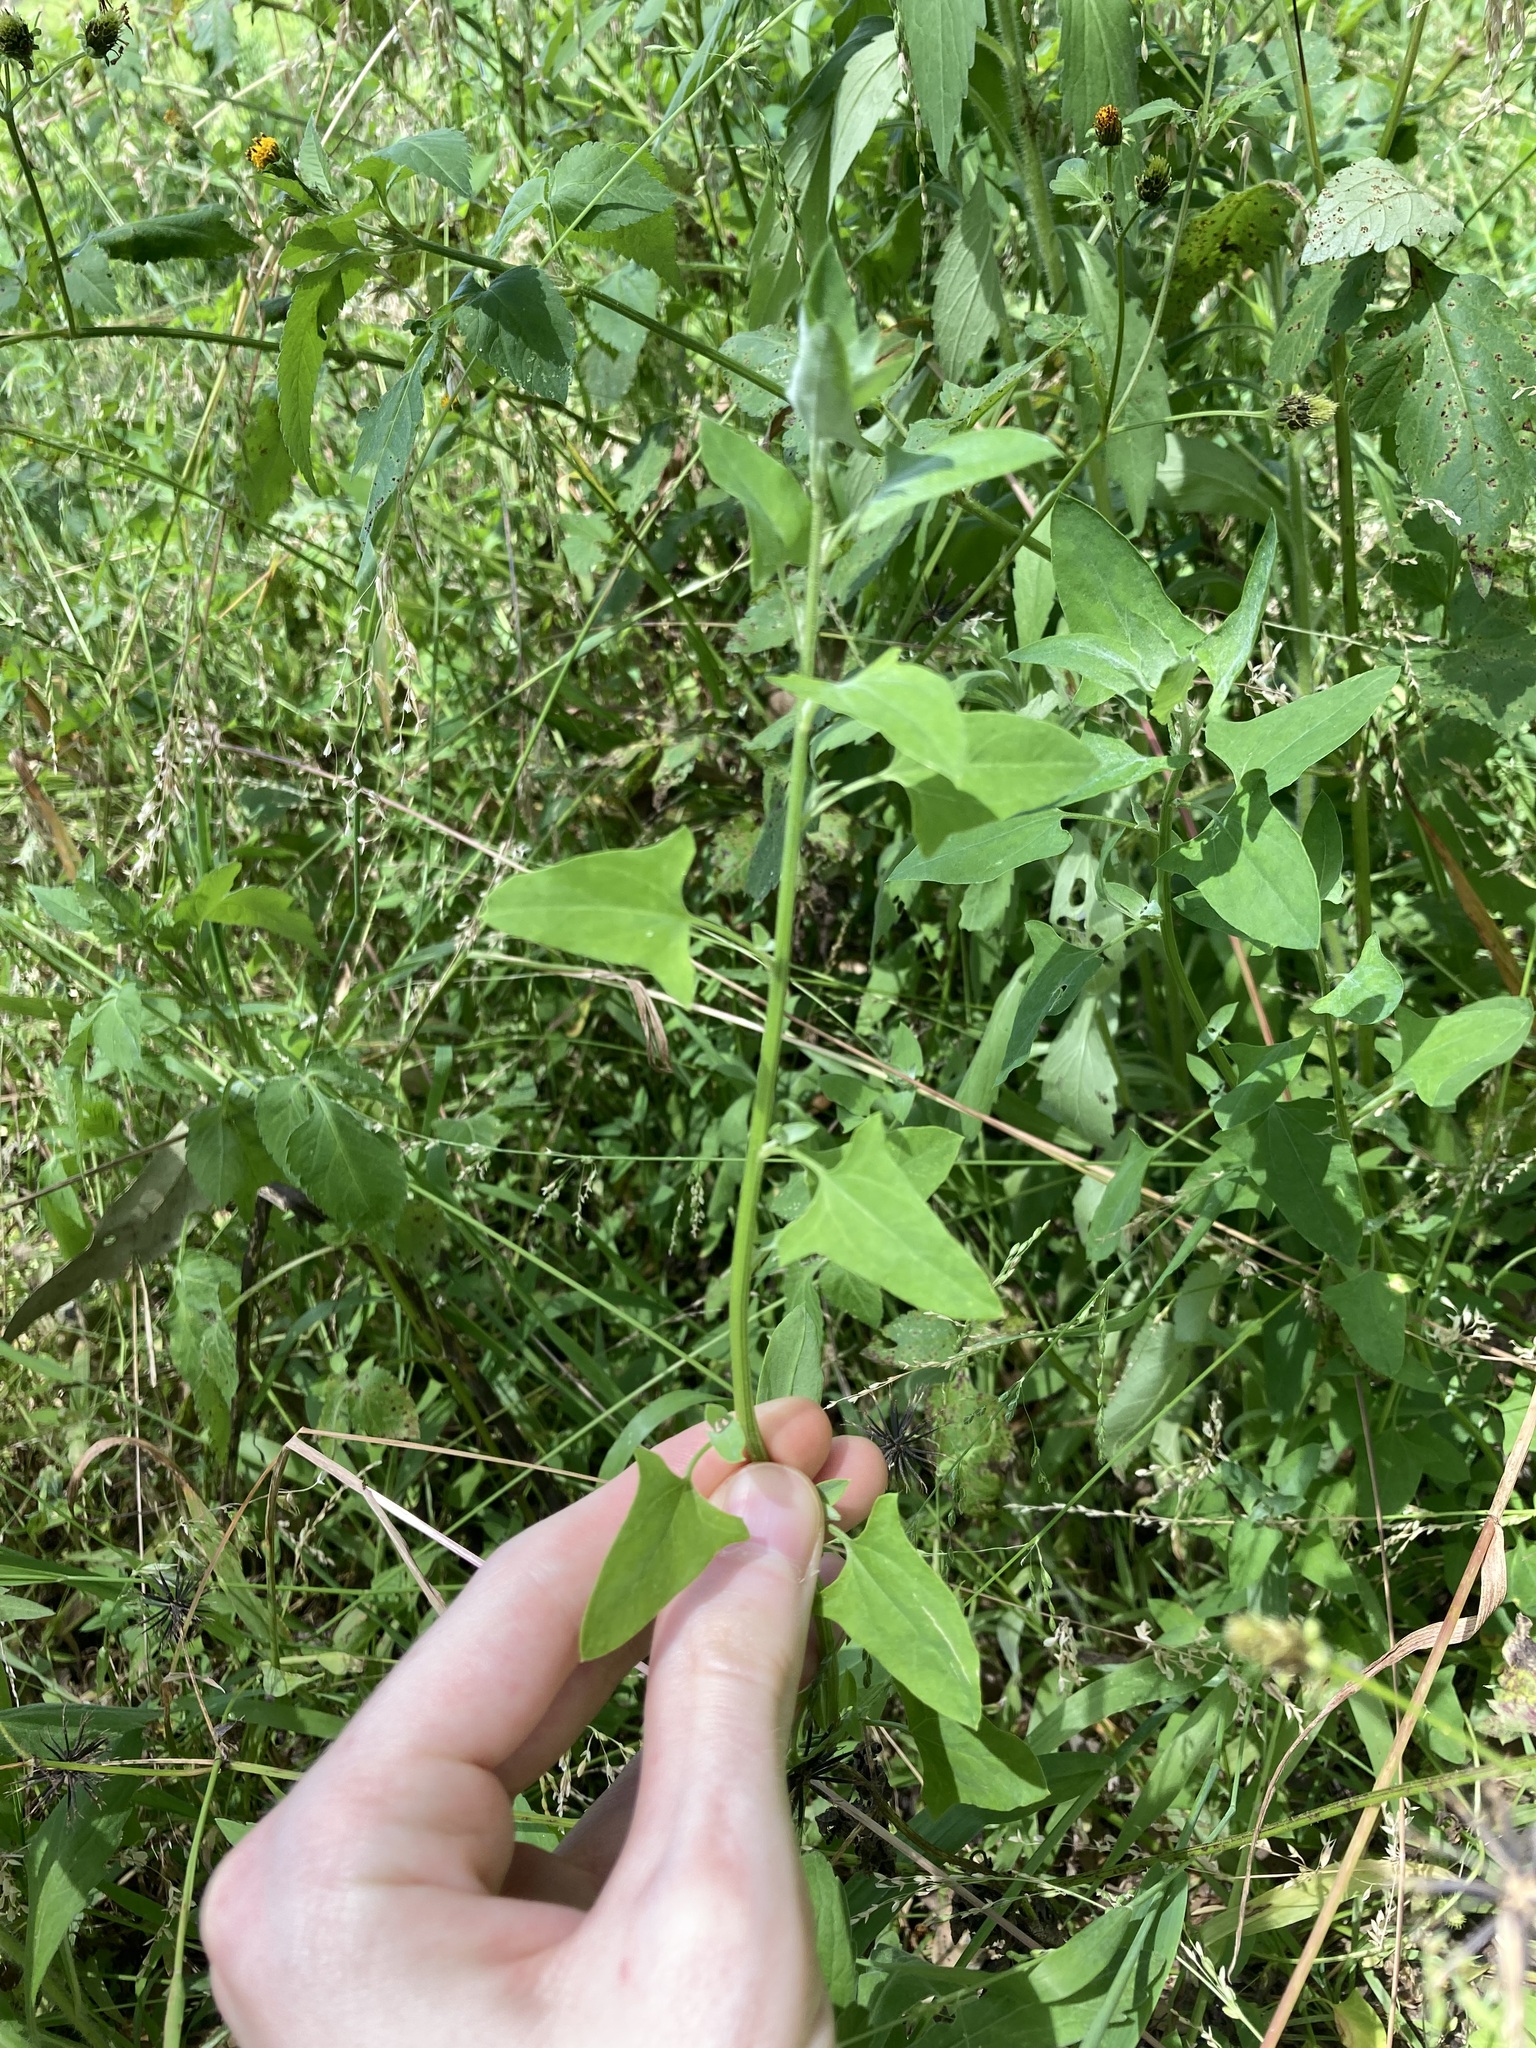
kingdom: Plantae
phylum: Tracheophyta
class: Magnoliopsida
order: Caryophyllales
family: Amaranthaceae
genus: Chenopodium
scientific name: Chenopodium trigonon
